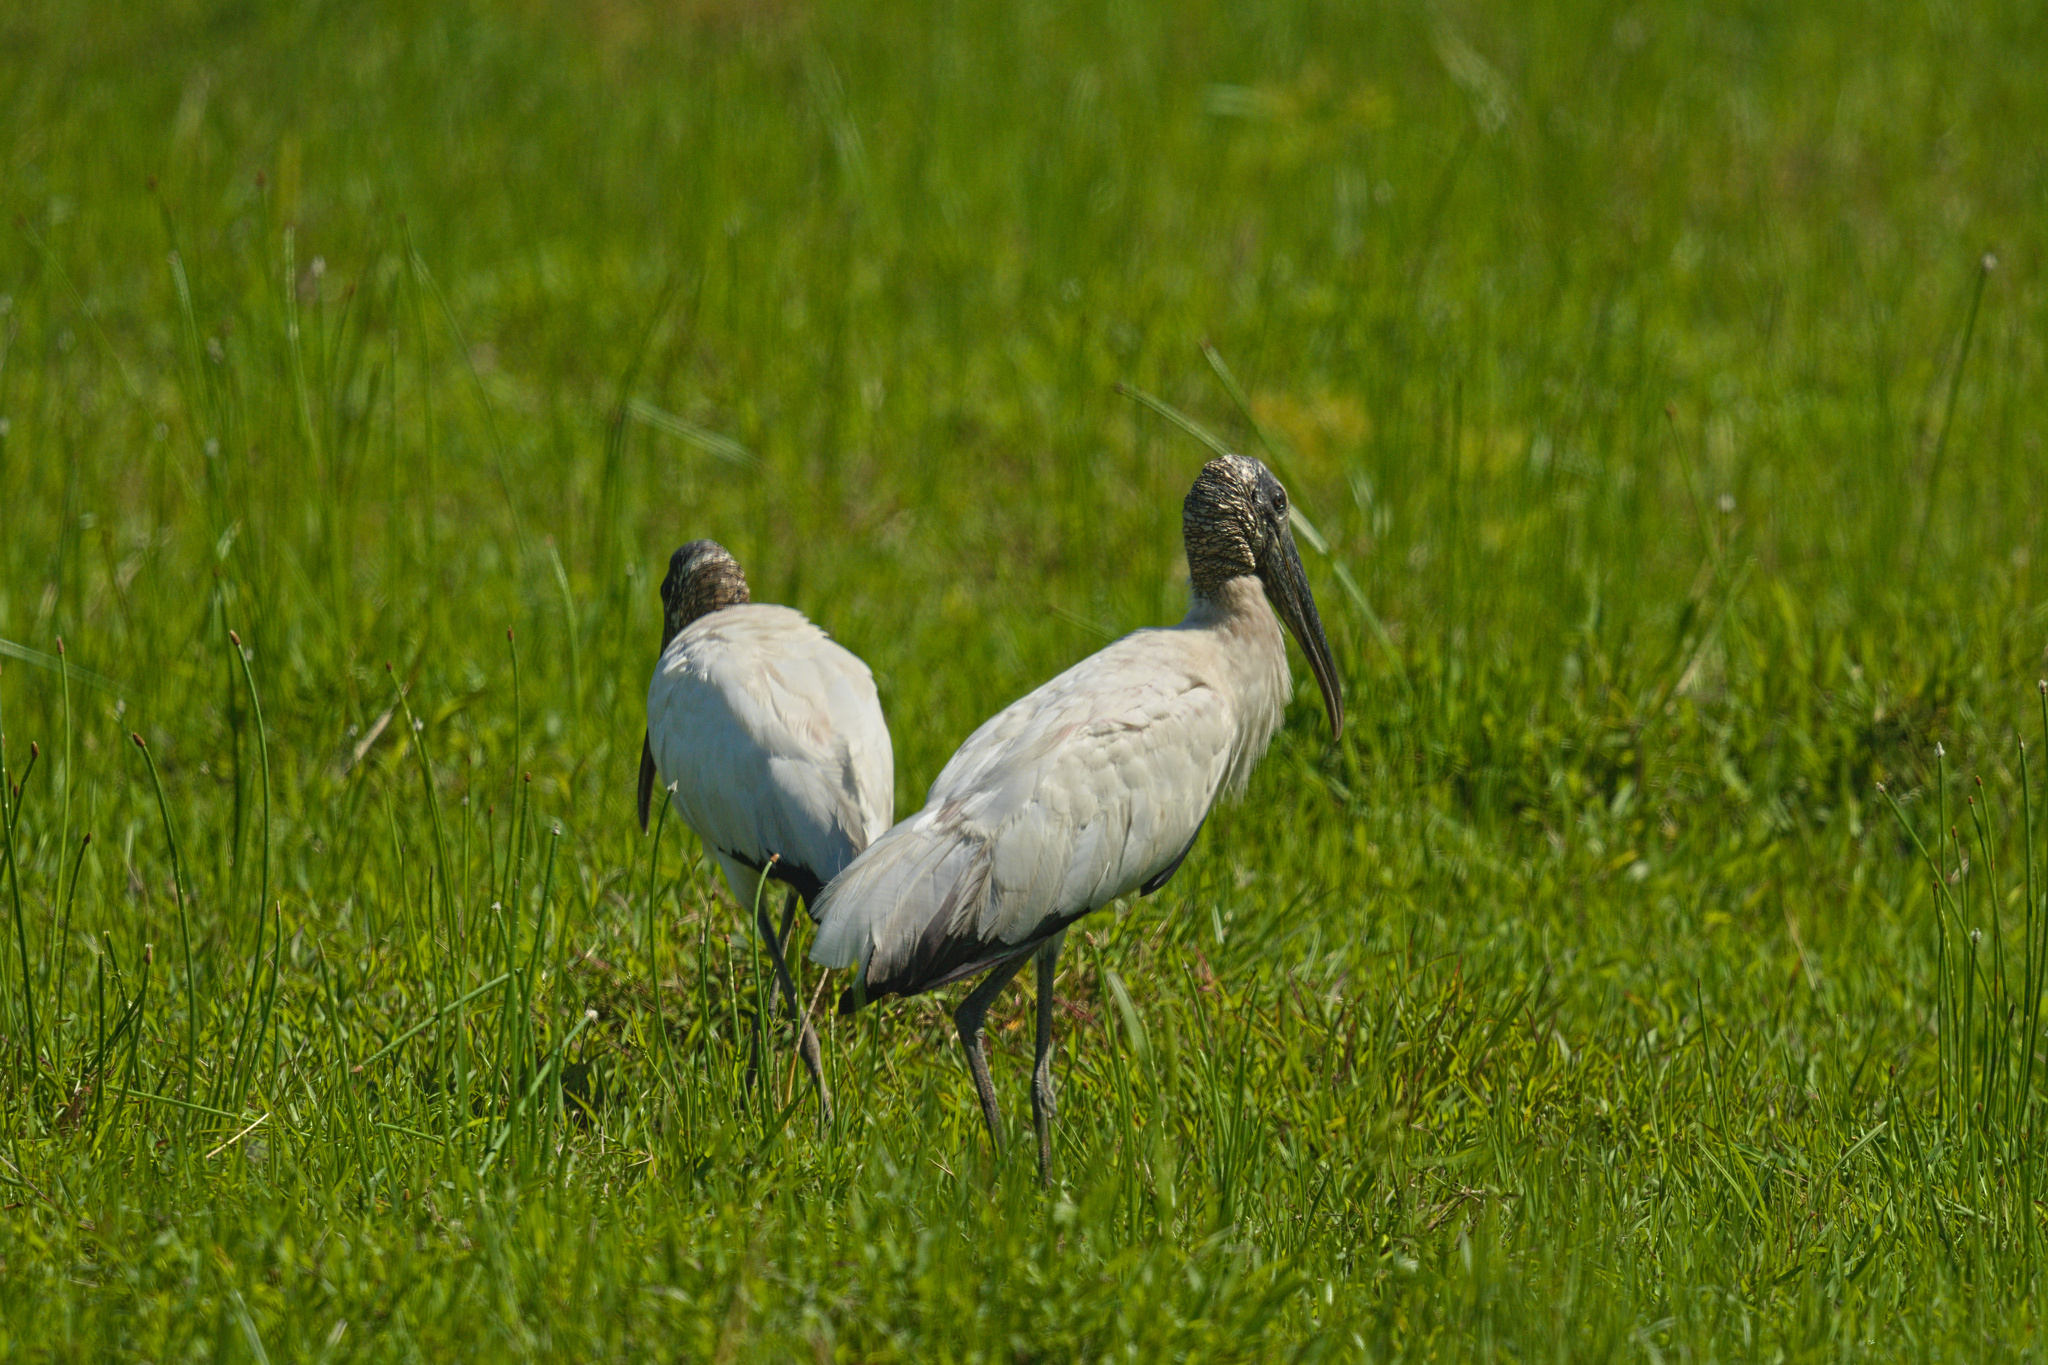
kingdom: Animalia
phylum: Chordata
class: Aves
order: Ciconiiformes
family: Ciconiidae
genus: Mycteria
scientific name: Mycteria americana
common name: Wood stork
